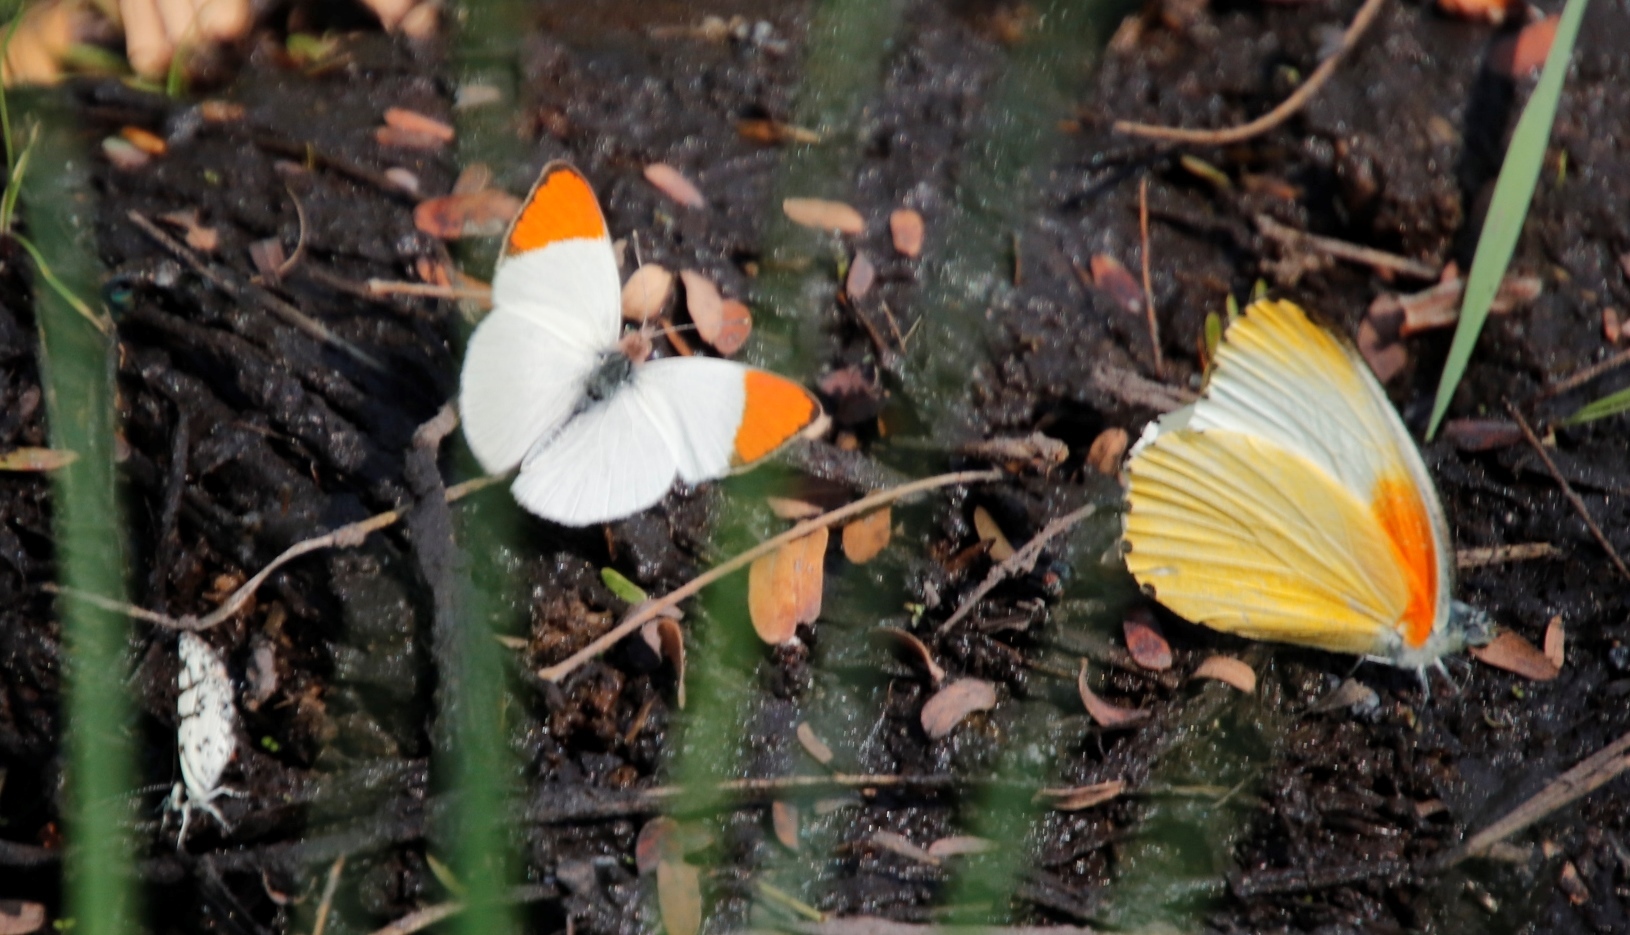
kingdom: Animalia
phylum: Arthropoda
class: Insecta
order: Lepidoptera
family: Pieridae
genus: Colotis
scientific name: Colotis evenina
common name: Common orange tip
